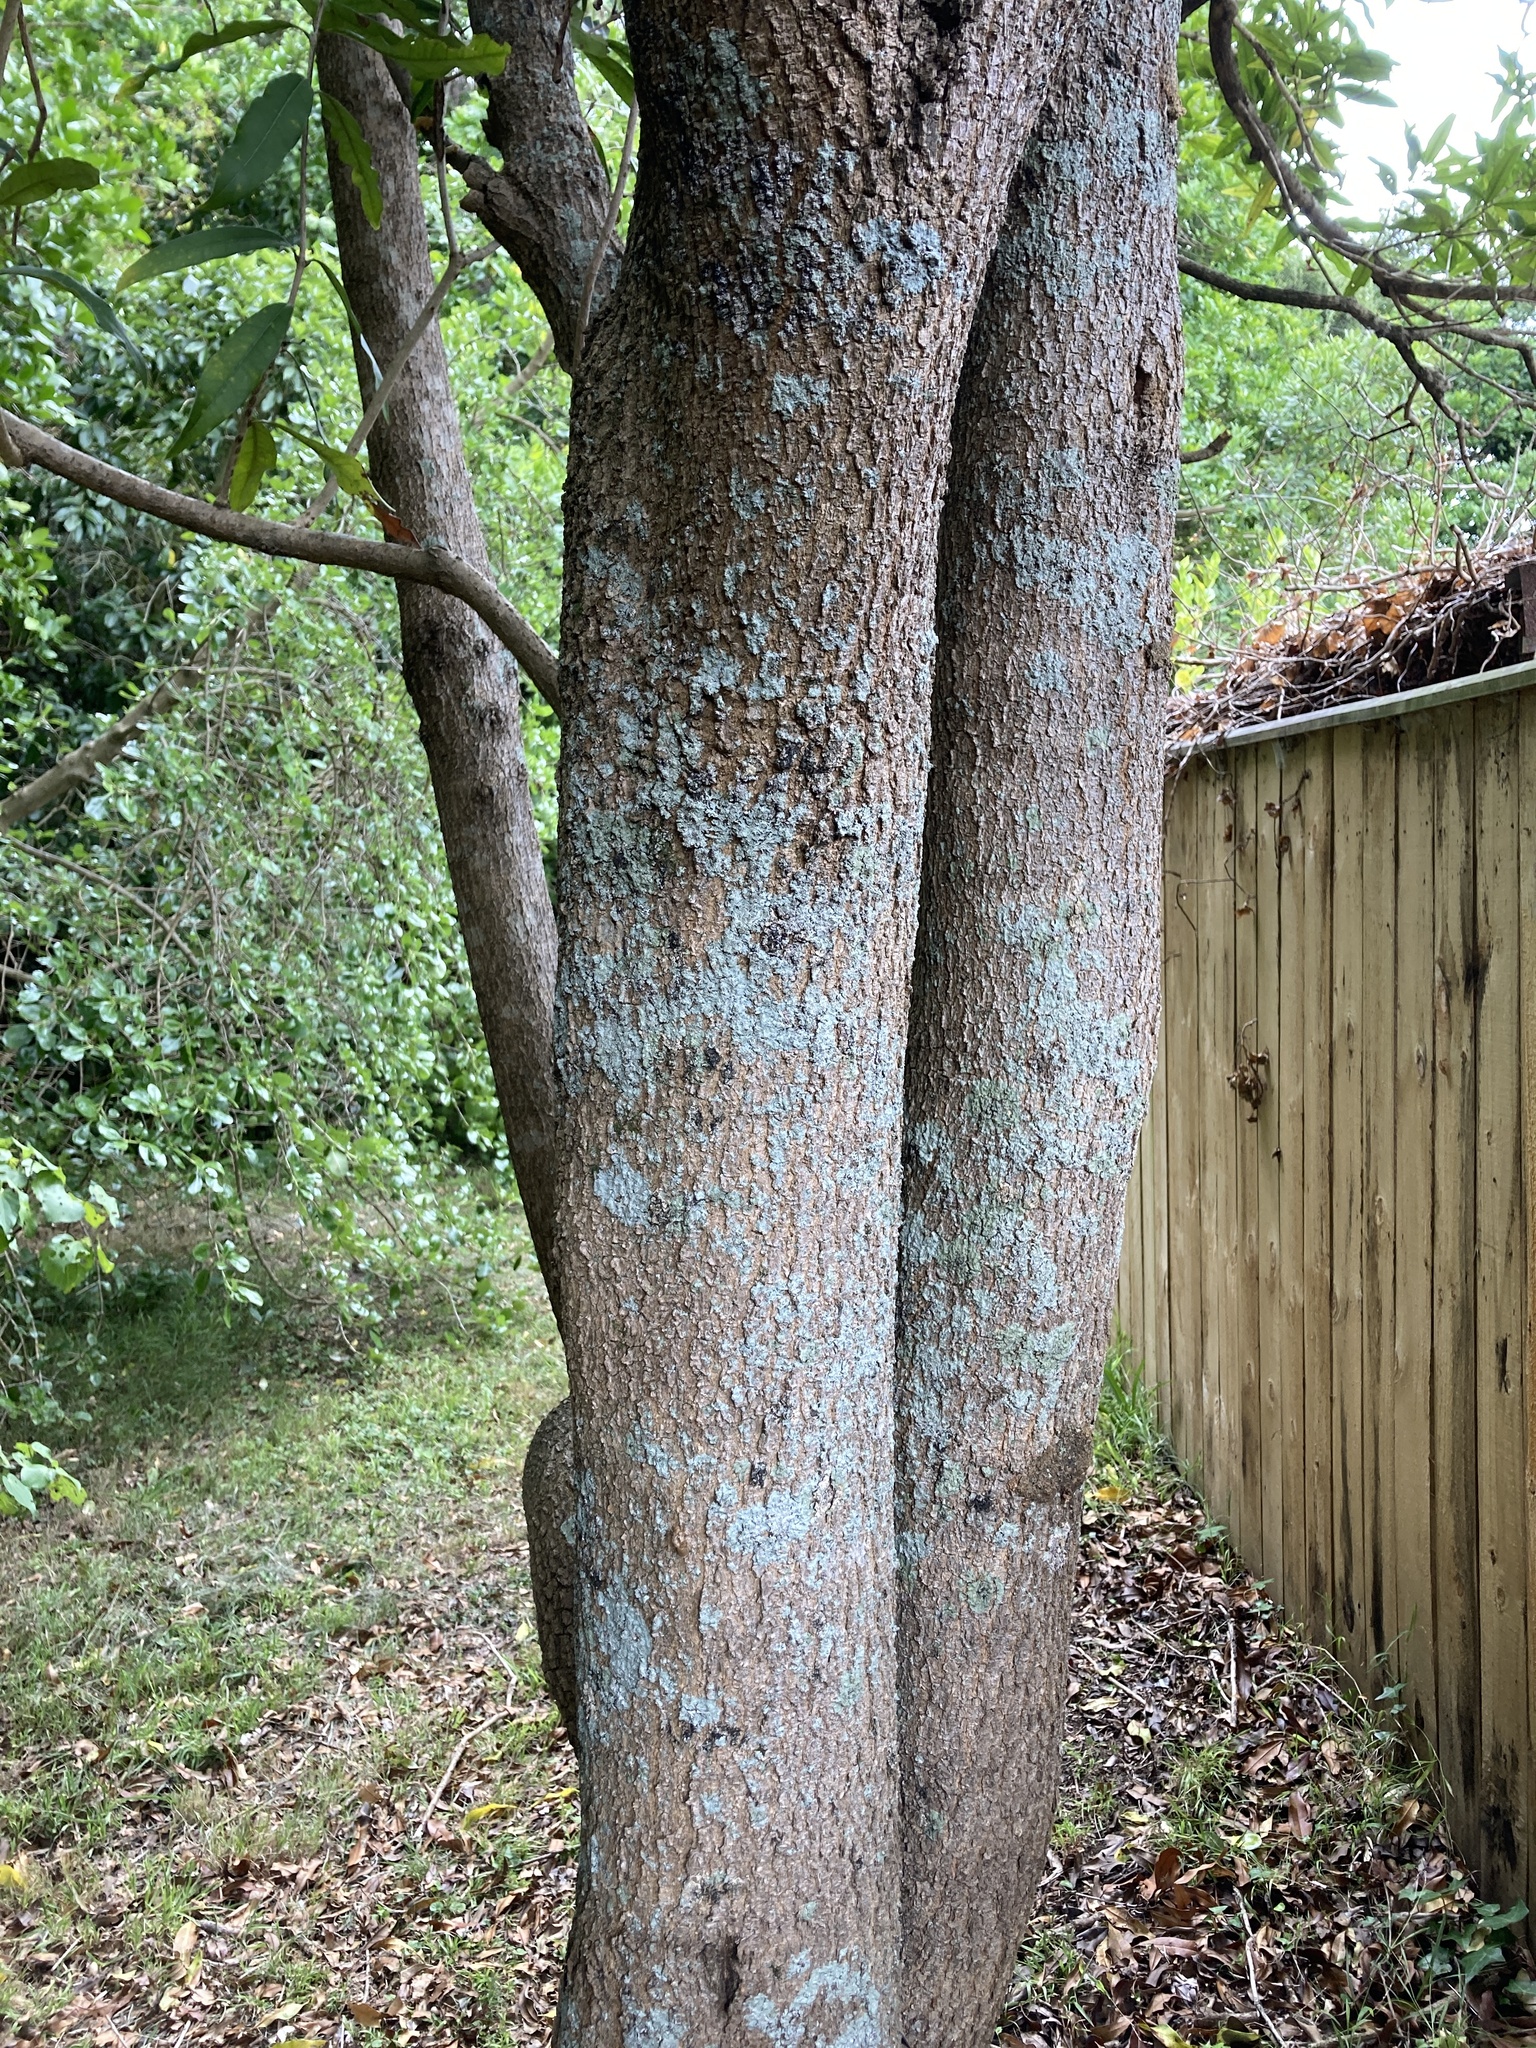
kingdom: Plantae
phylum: Tracheophyta
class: Magnoliopsida
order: Lamiales
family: Oleaceae
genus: Nestegis
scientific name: Nestegis cunninghamii
